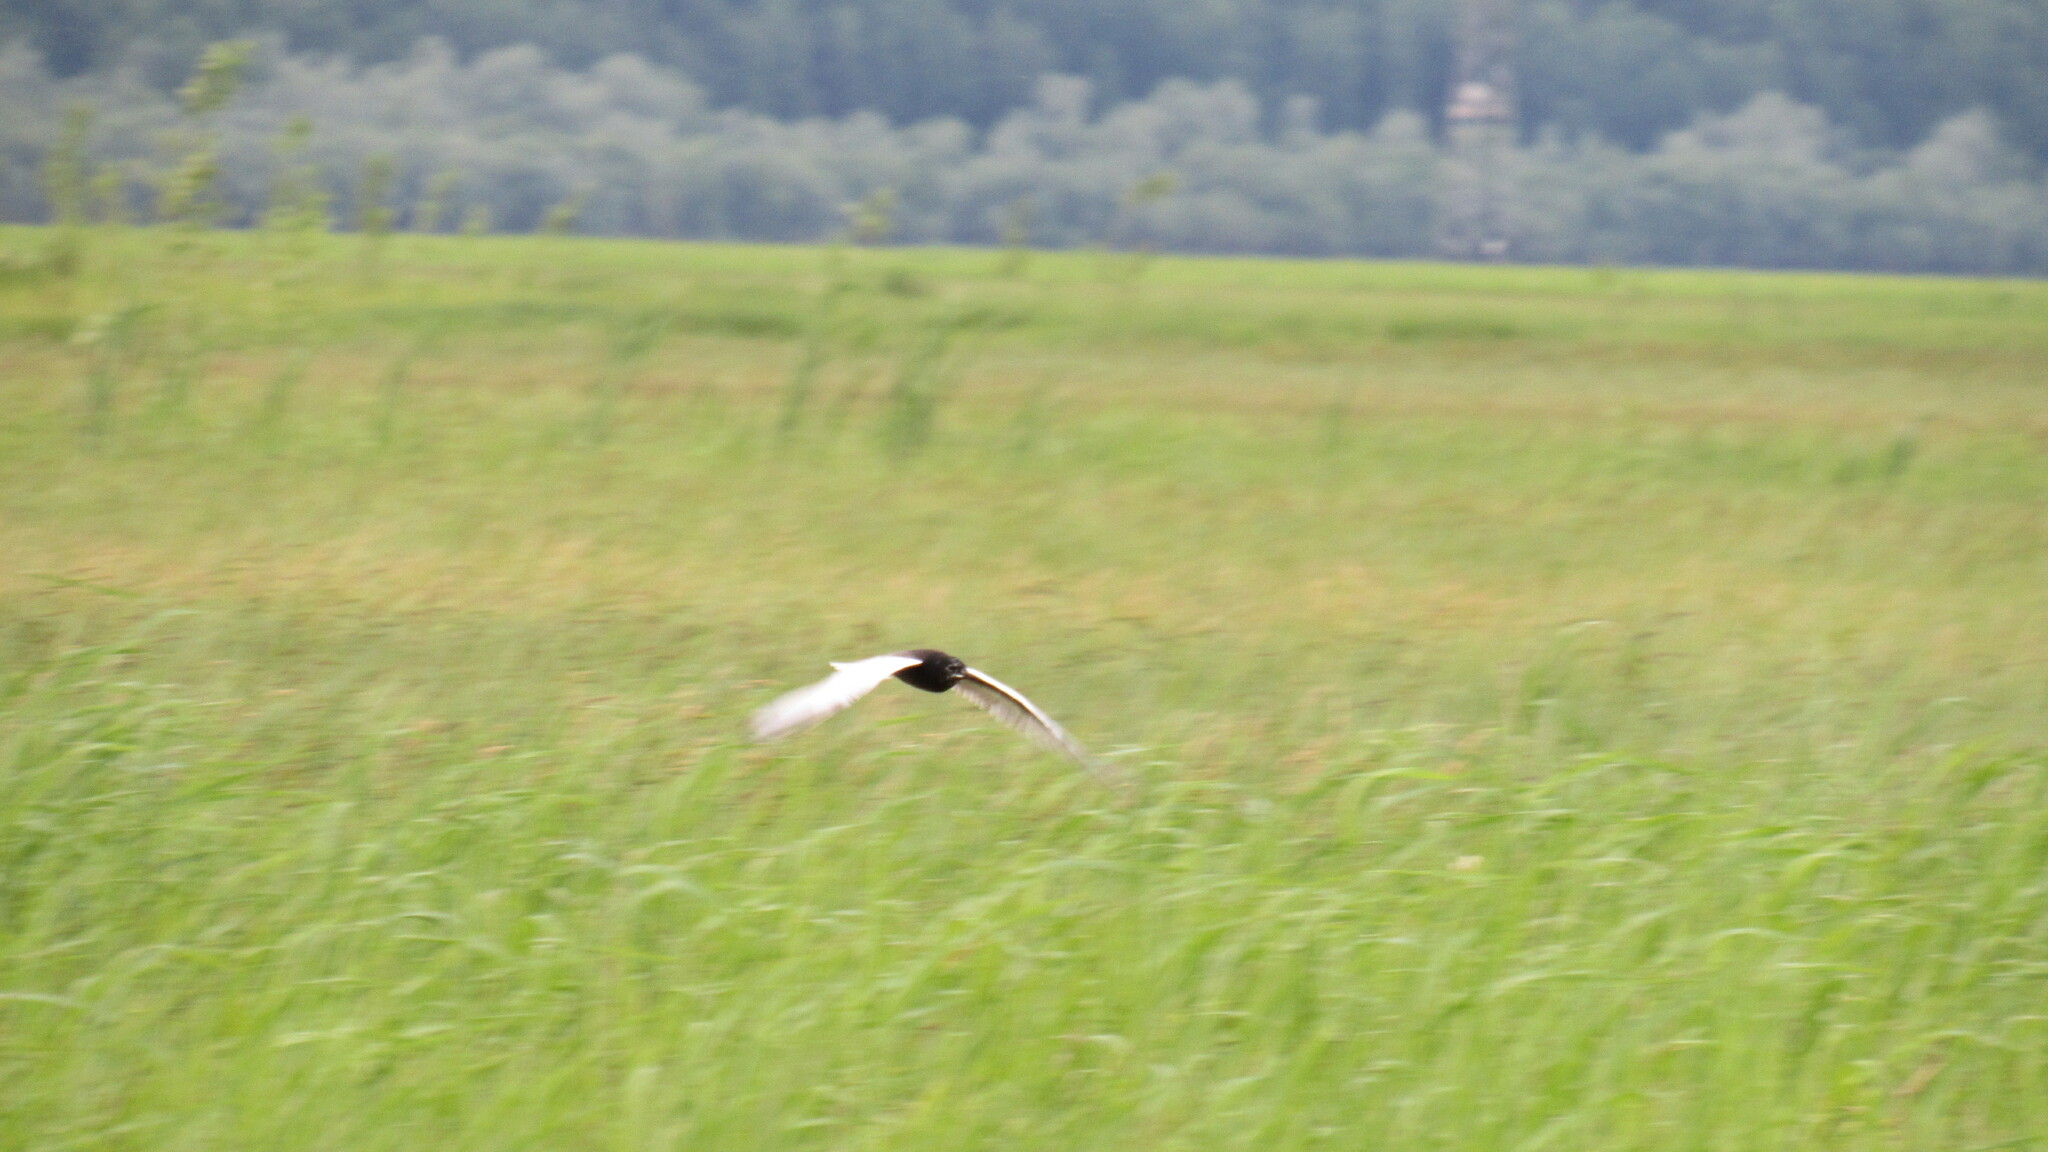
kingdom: Animalia
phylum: Chordata
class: Aves
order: Charadriiformes
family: Laridae
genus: Chlidonias
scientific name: Chlidonias leucopterus
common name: White-winged tern
